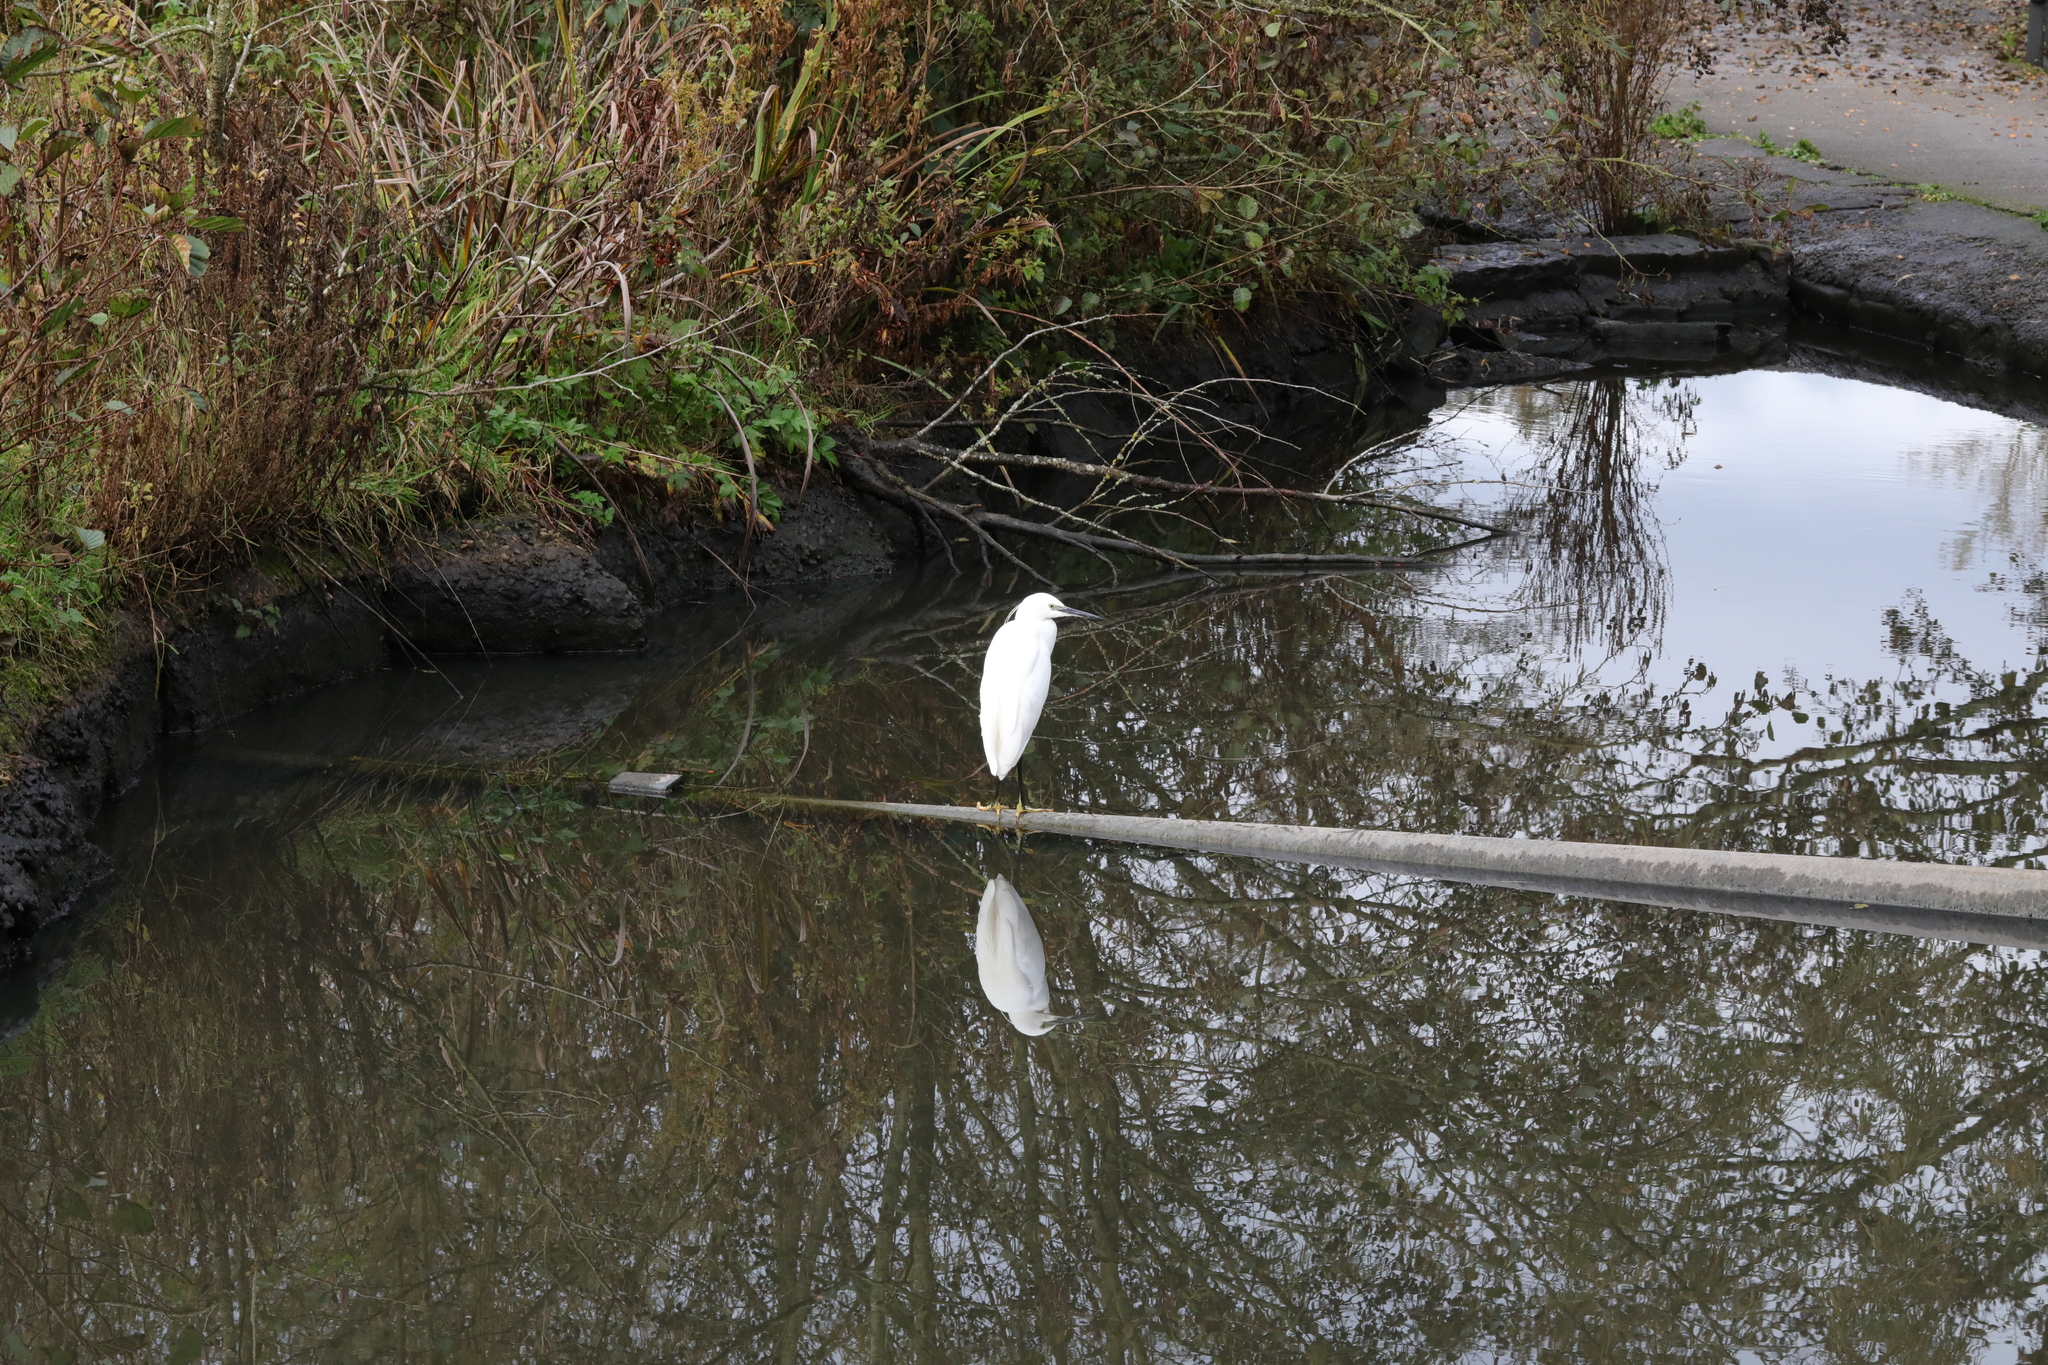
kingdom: Animalia
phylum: Chordata
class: Aves
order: Pelecaniformes
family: Ardeidae
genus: Egretta
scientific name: Egretta garzetta
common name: Little egret
